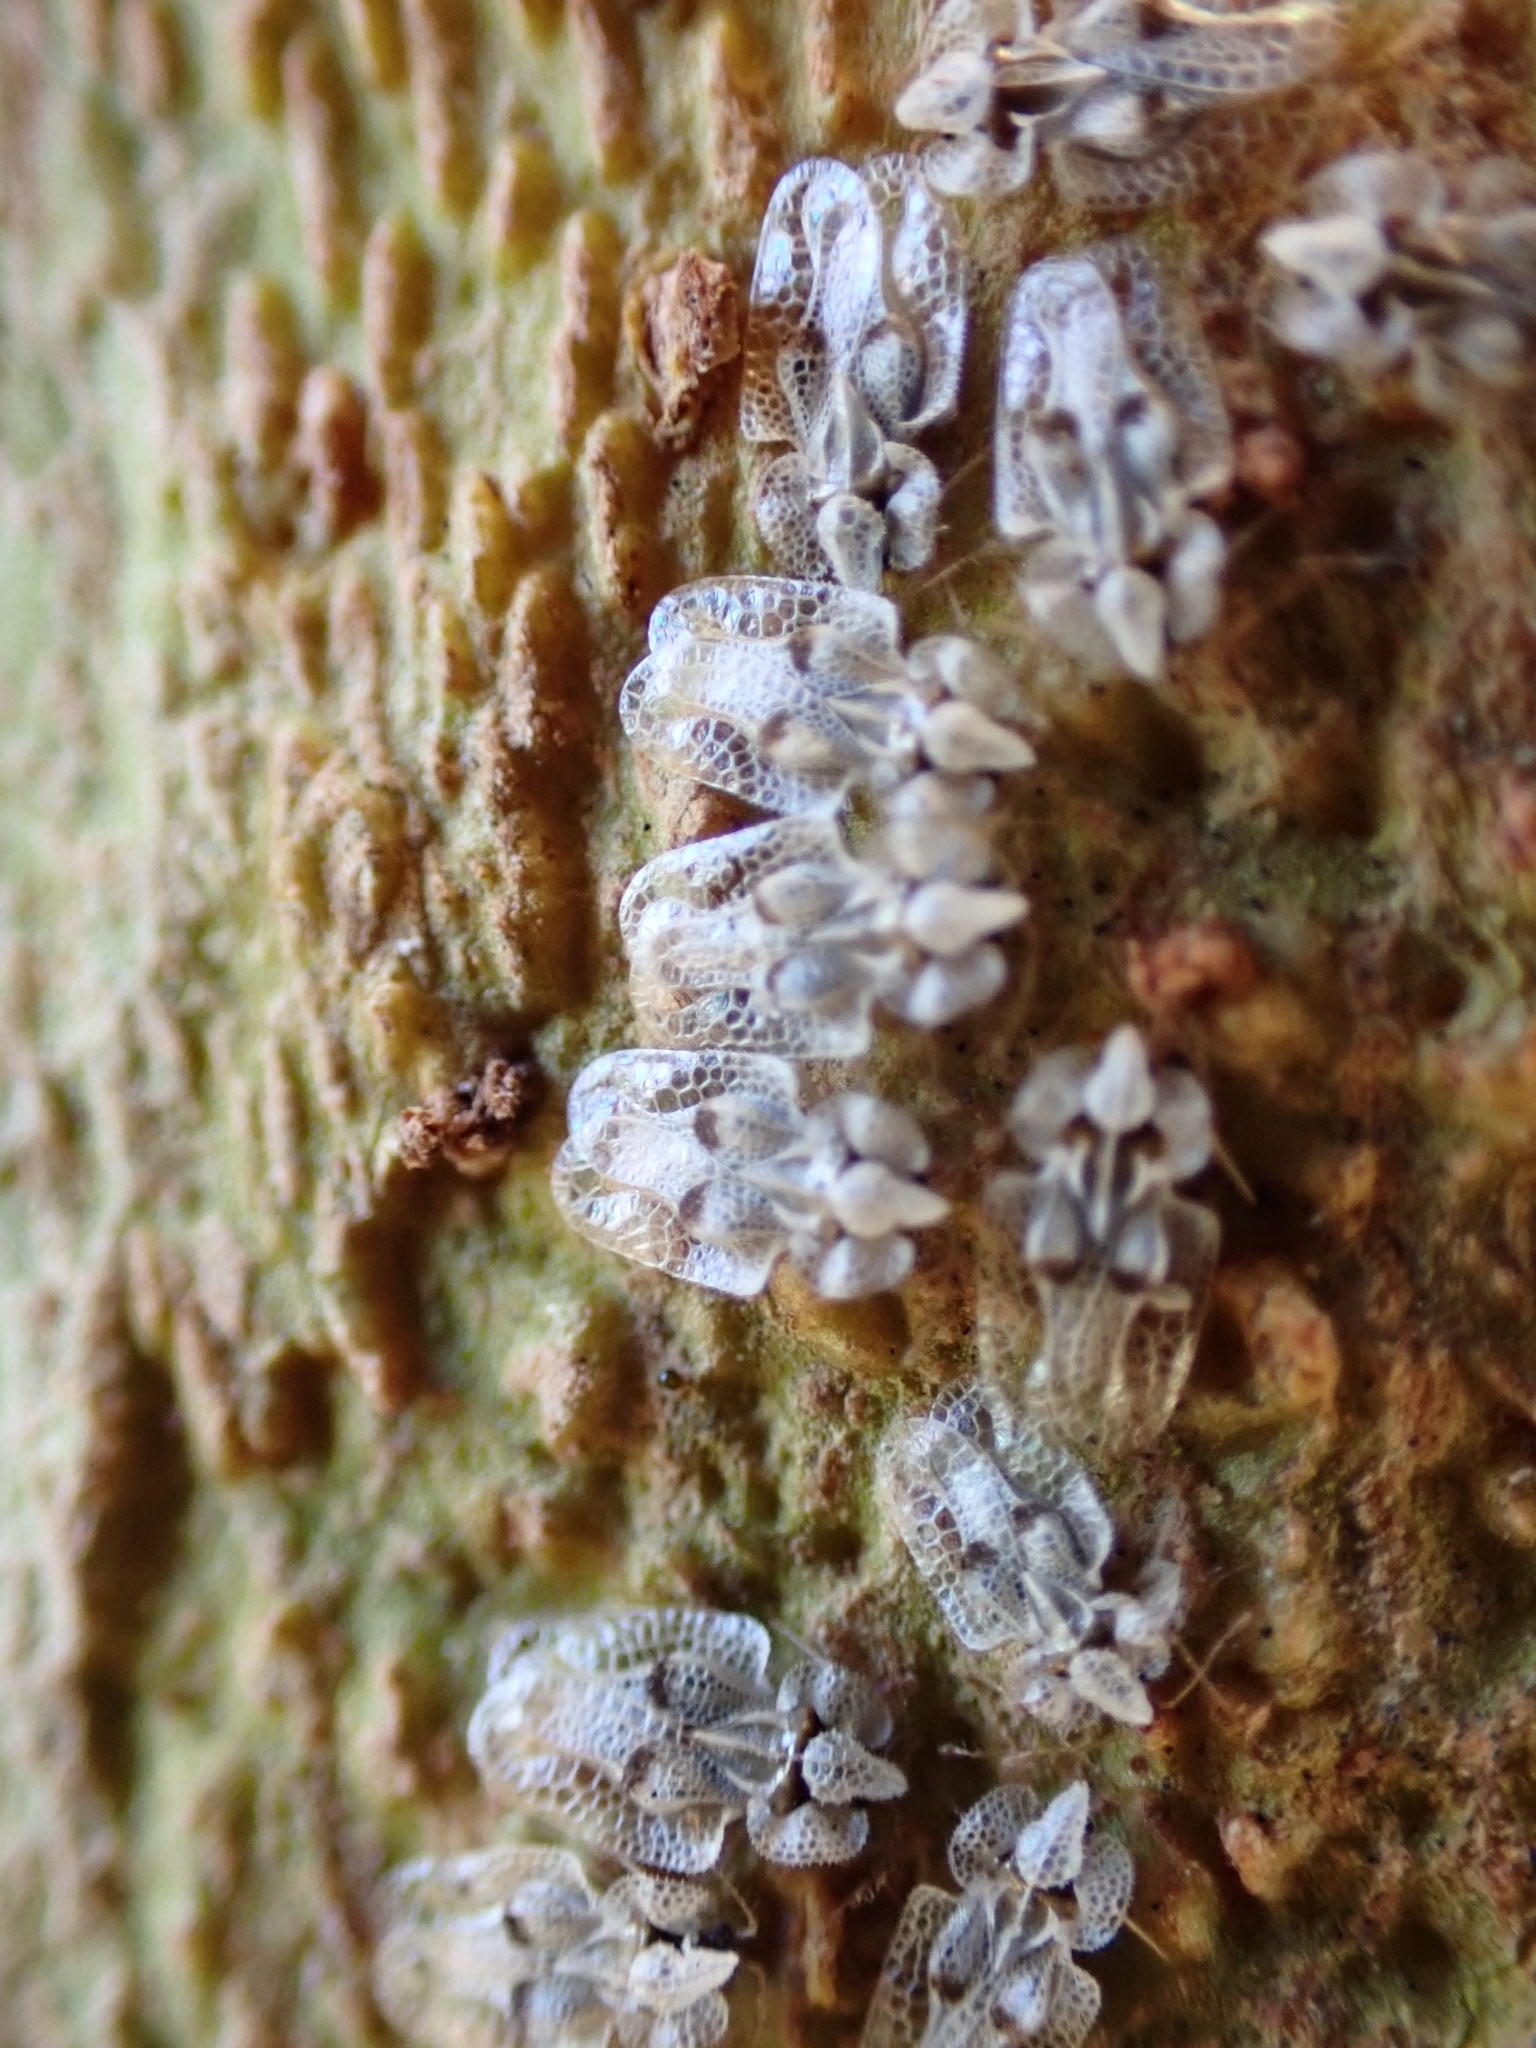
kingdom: Animalia
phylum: Arthropoda
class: Insecta
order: Hemiptera
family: Tingidae
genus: Corythucha
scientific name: Corythucha ciliata
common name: Sycamore lace bug
